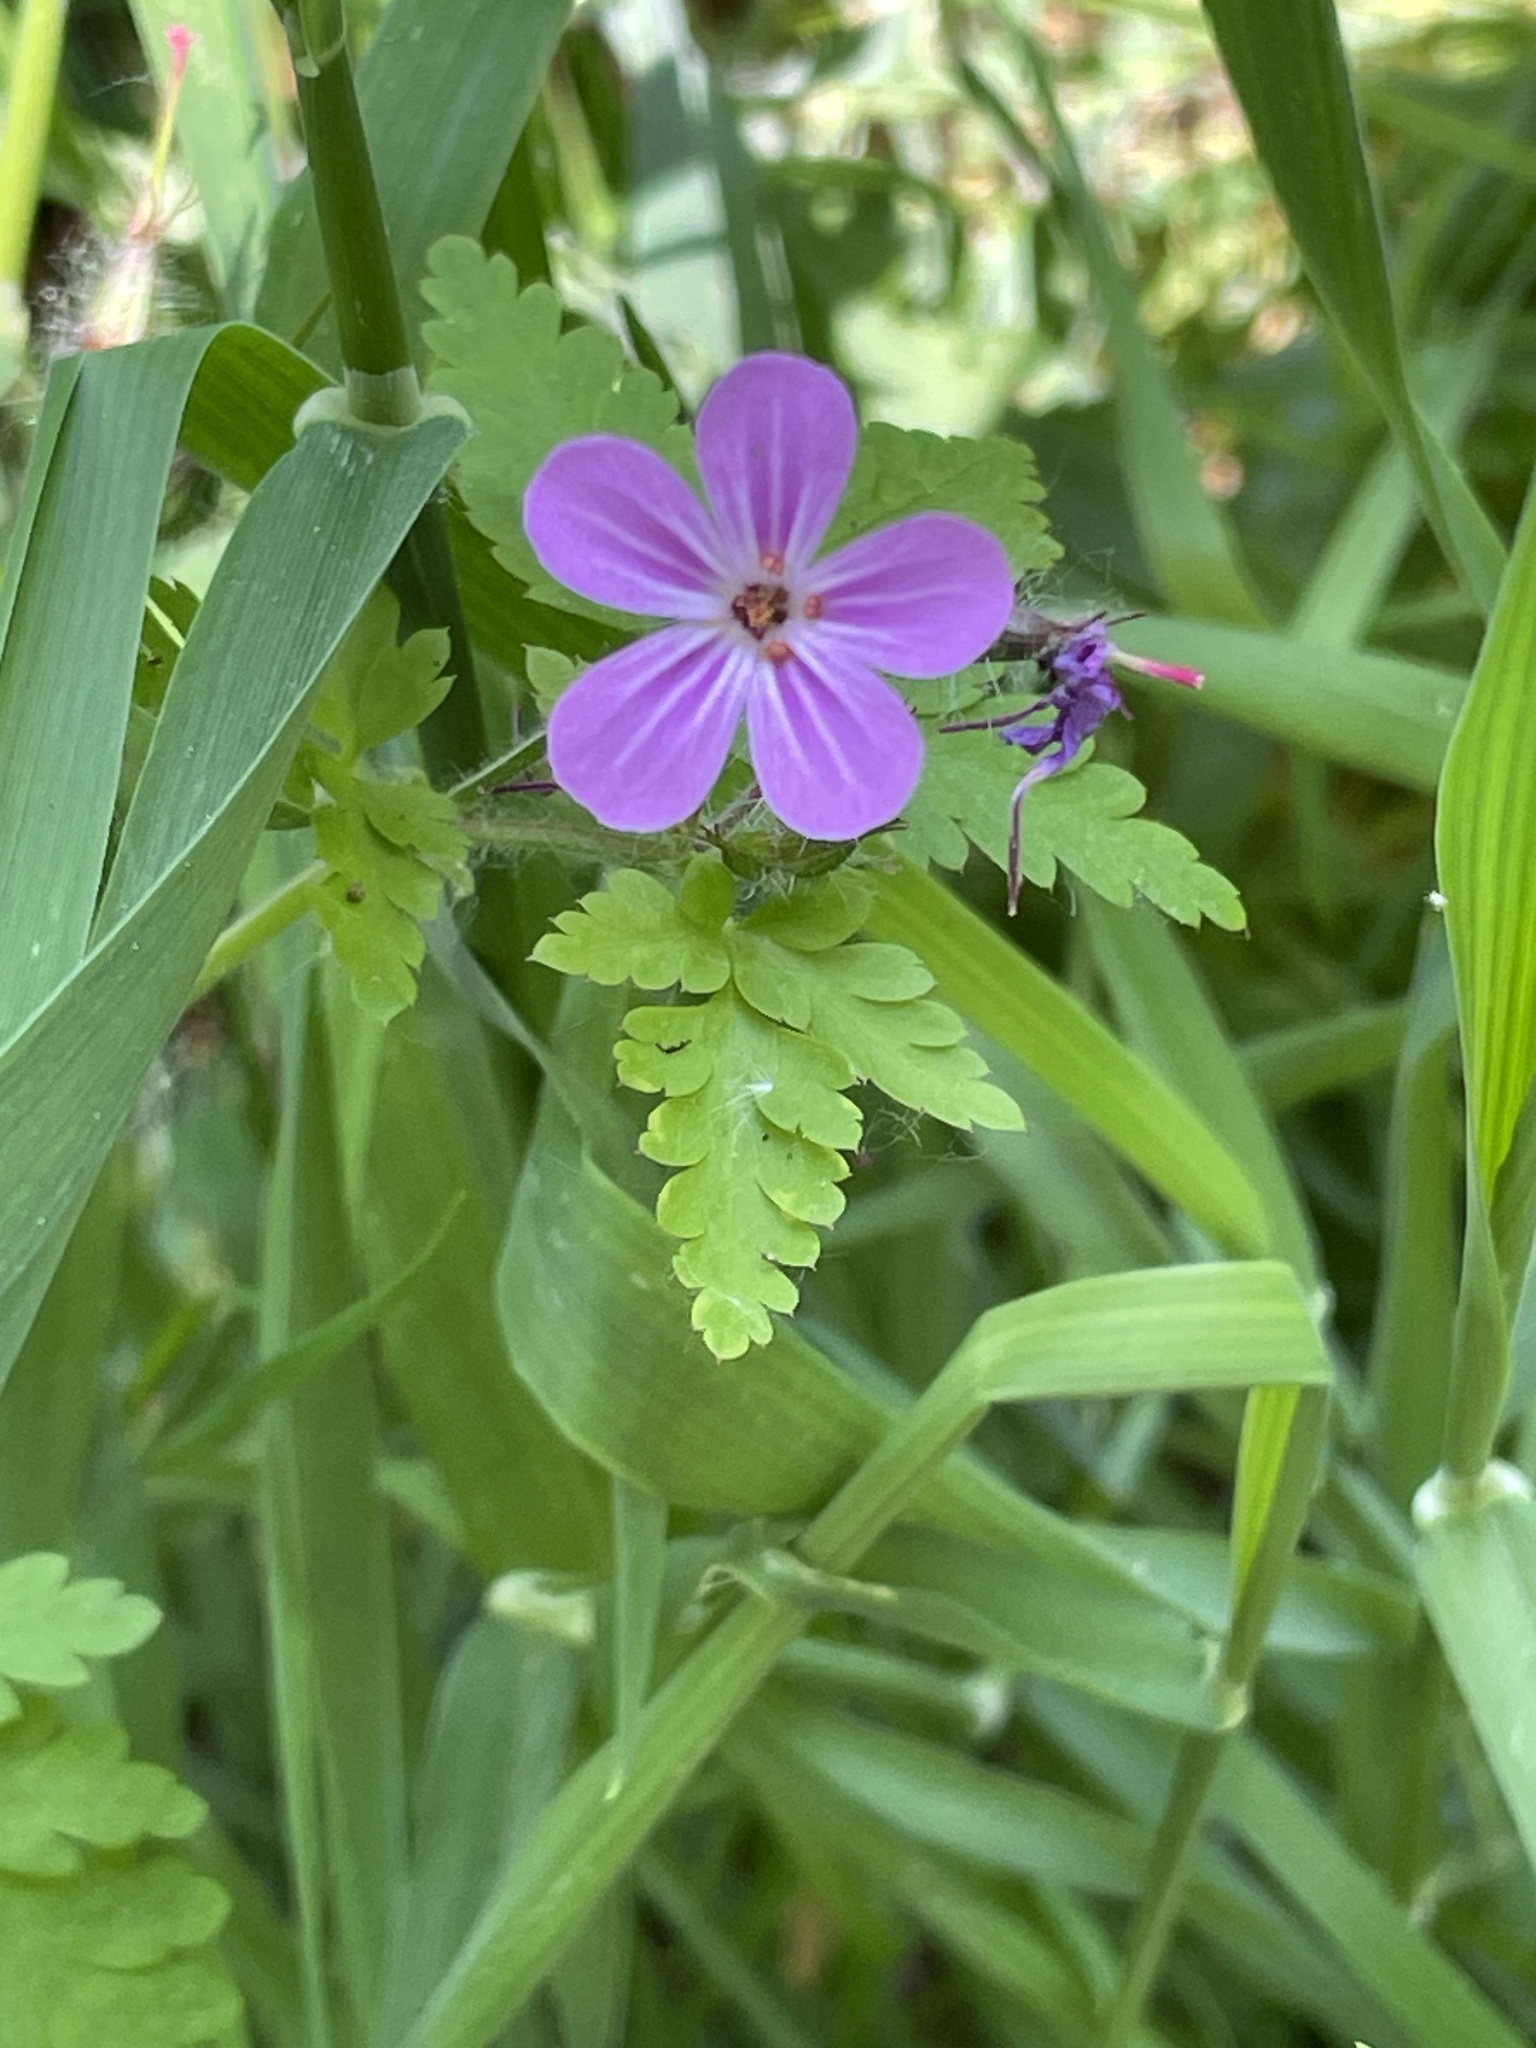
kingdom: Plantae
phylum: Tracheophyta
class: Magnoliopsida
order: Geraniales
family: Geraniaceae
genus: Geranium
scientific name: Geranium robertianum
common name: Herb-robert
